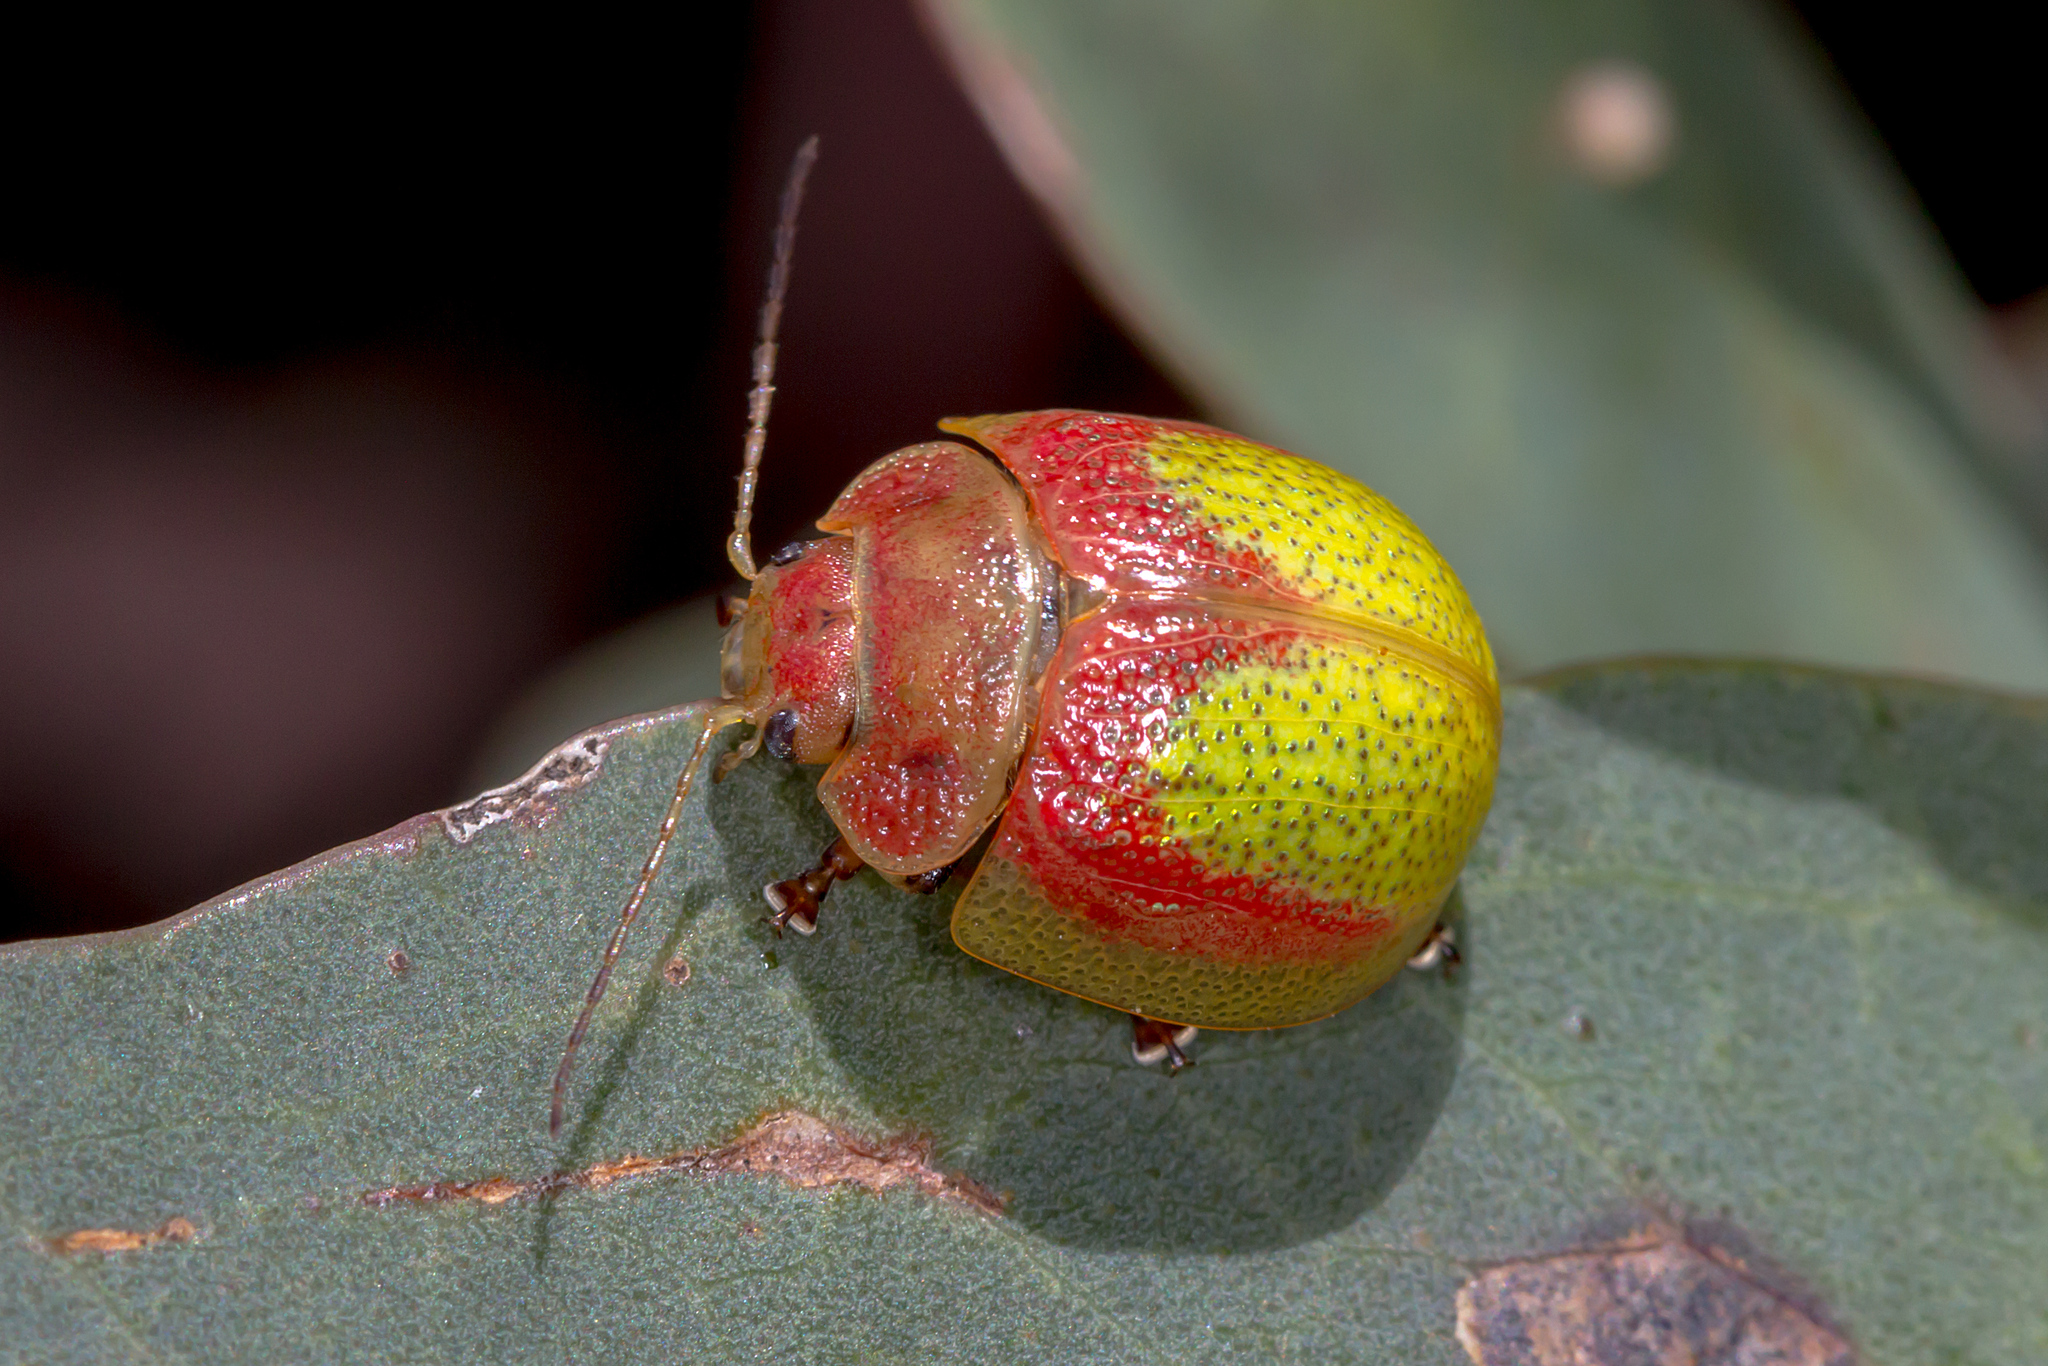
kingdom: Animalia
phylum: Arthropoda
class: Insecta
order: Coleoptera
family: Chrysomelidae
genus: Paropsisterna
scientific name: Paropsisterna
